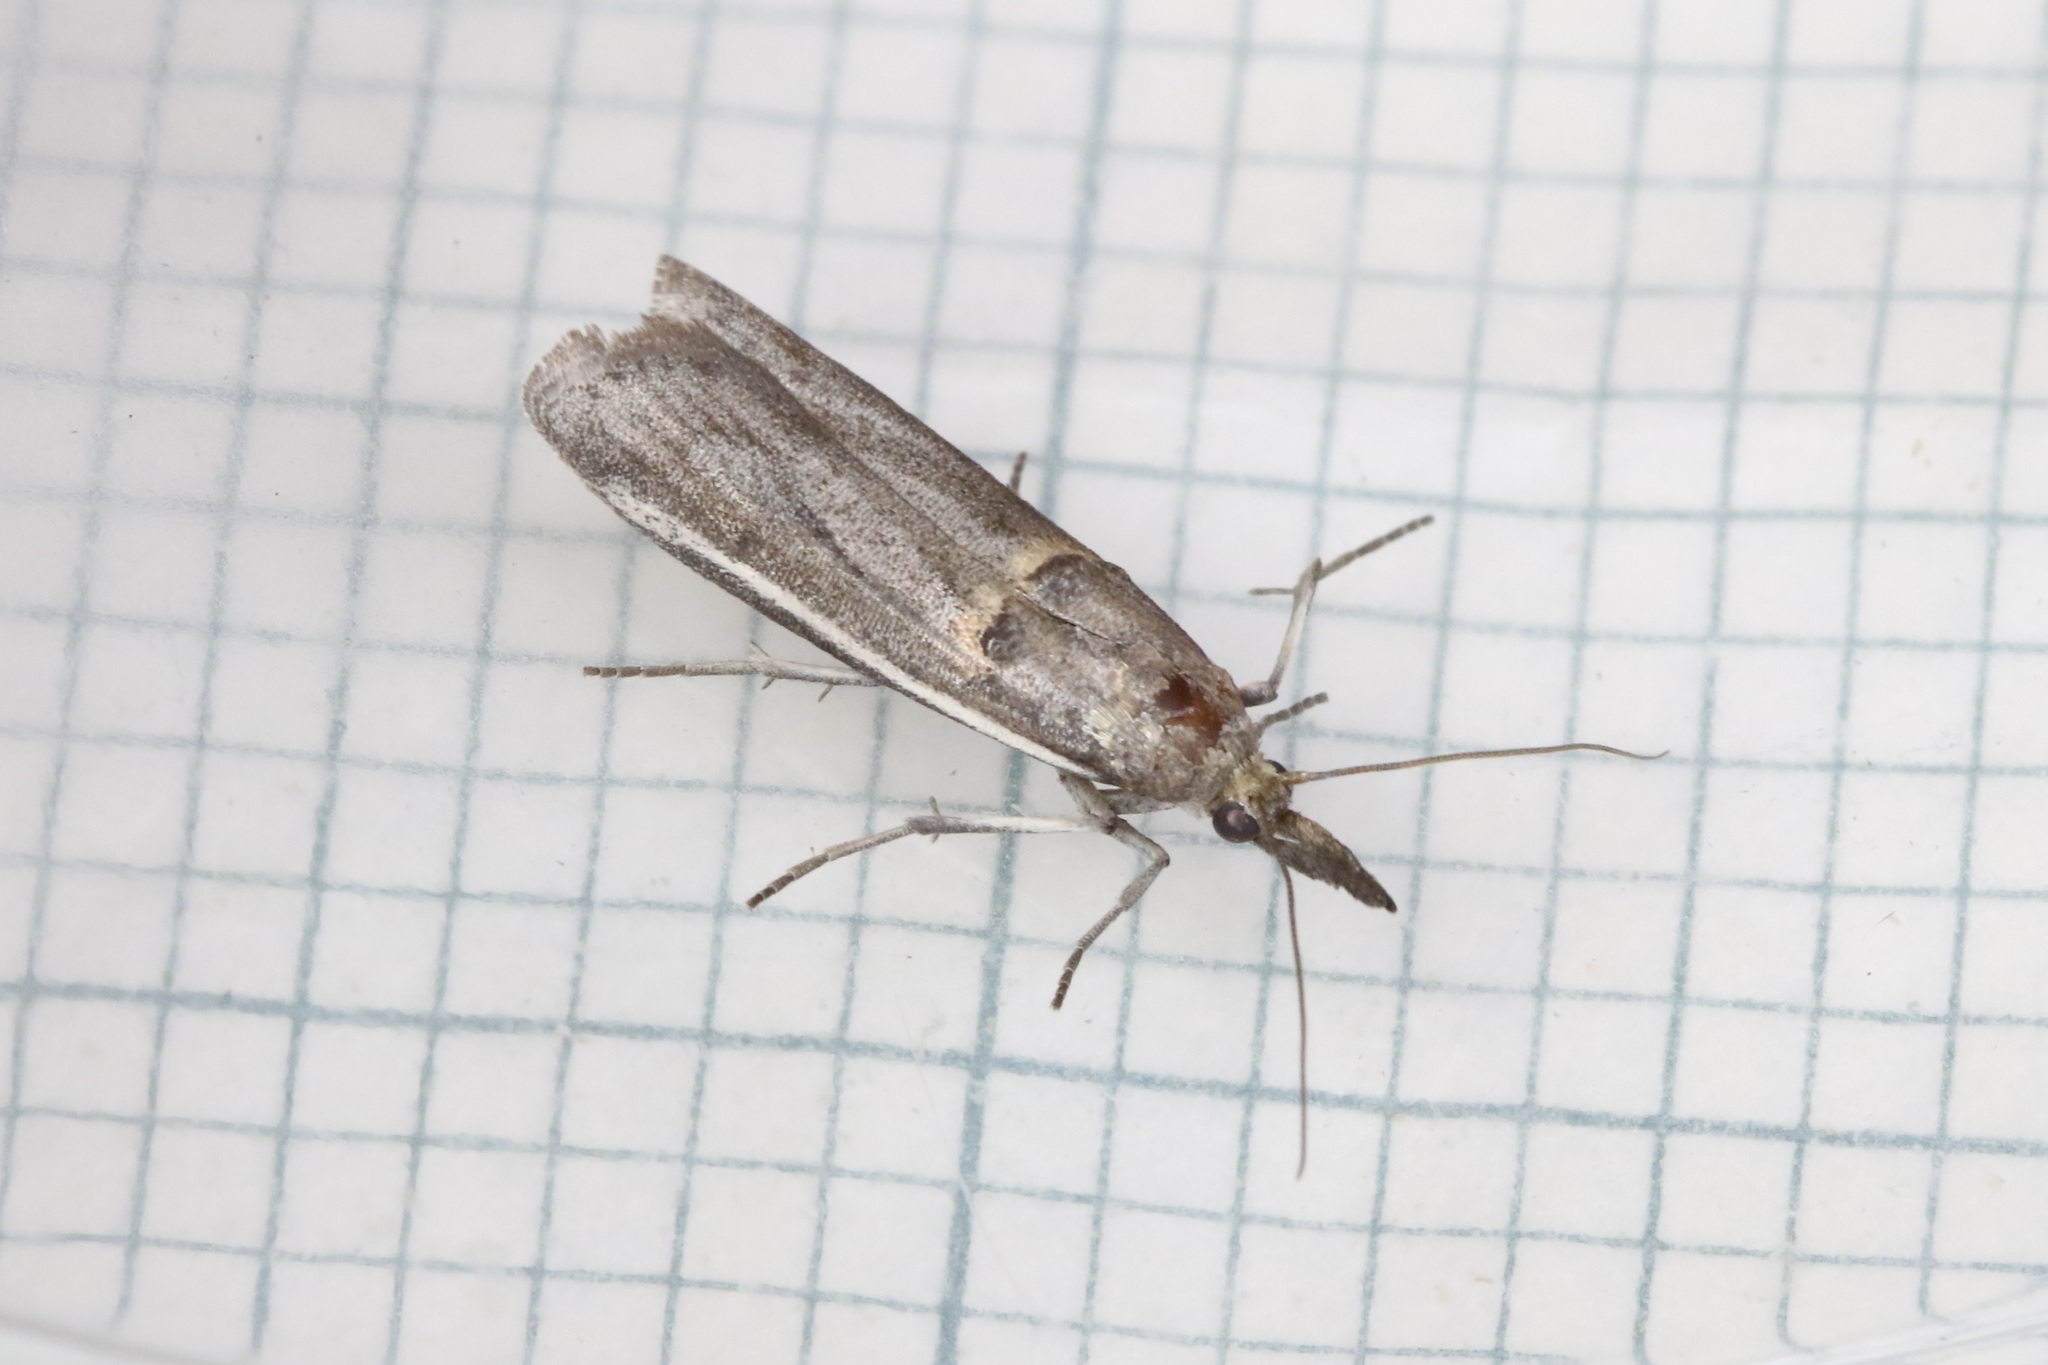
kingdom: Animalia
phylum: Arthropoda
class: Insecta
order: Lepidoptera
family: Pyralidae
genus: Etiella
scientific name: Etiella zinckenella
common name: Gold-banded etiella moth
